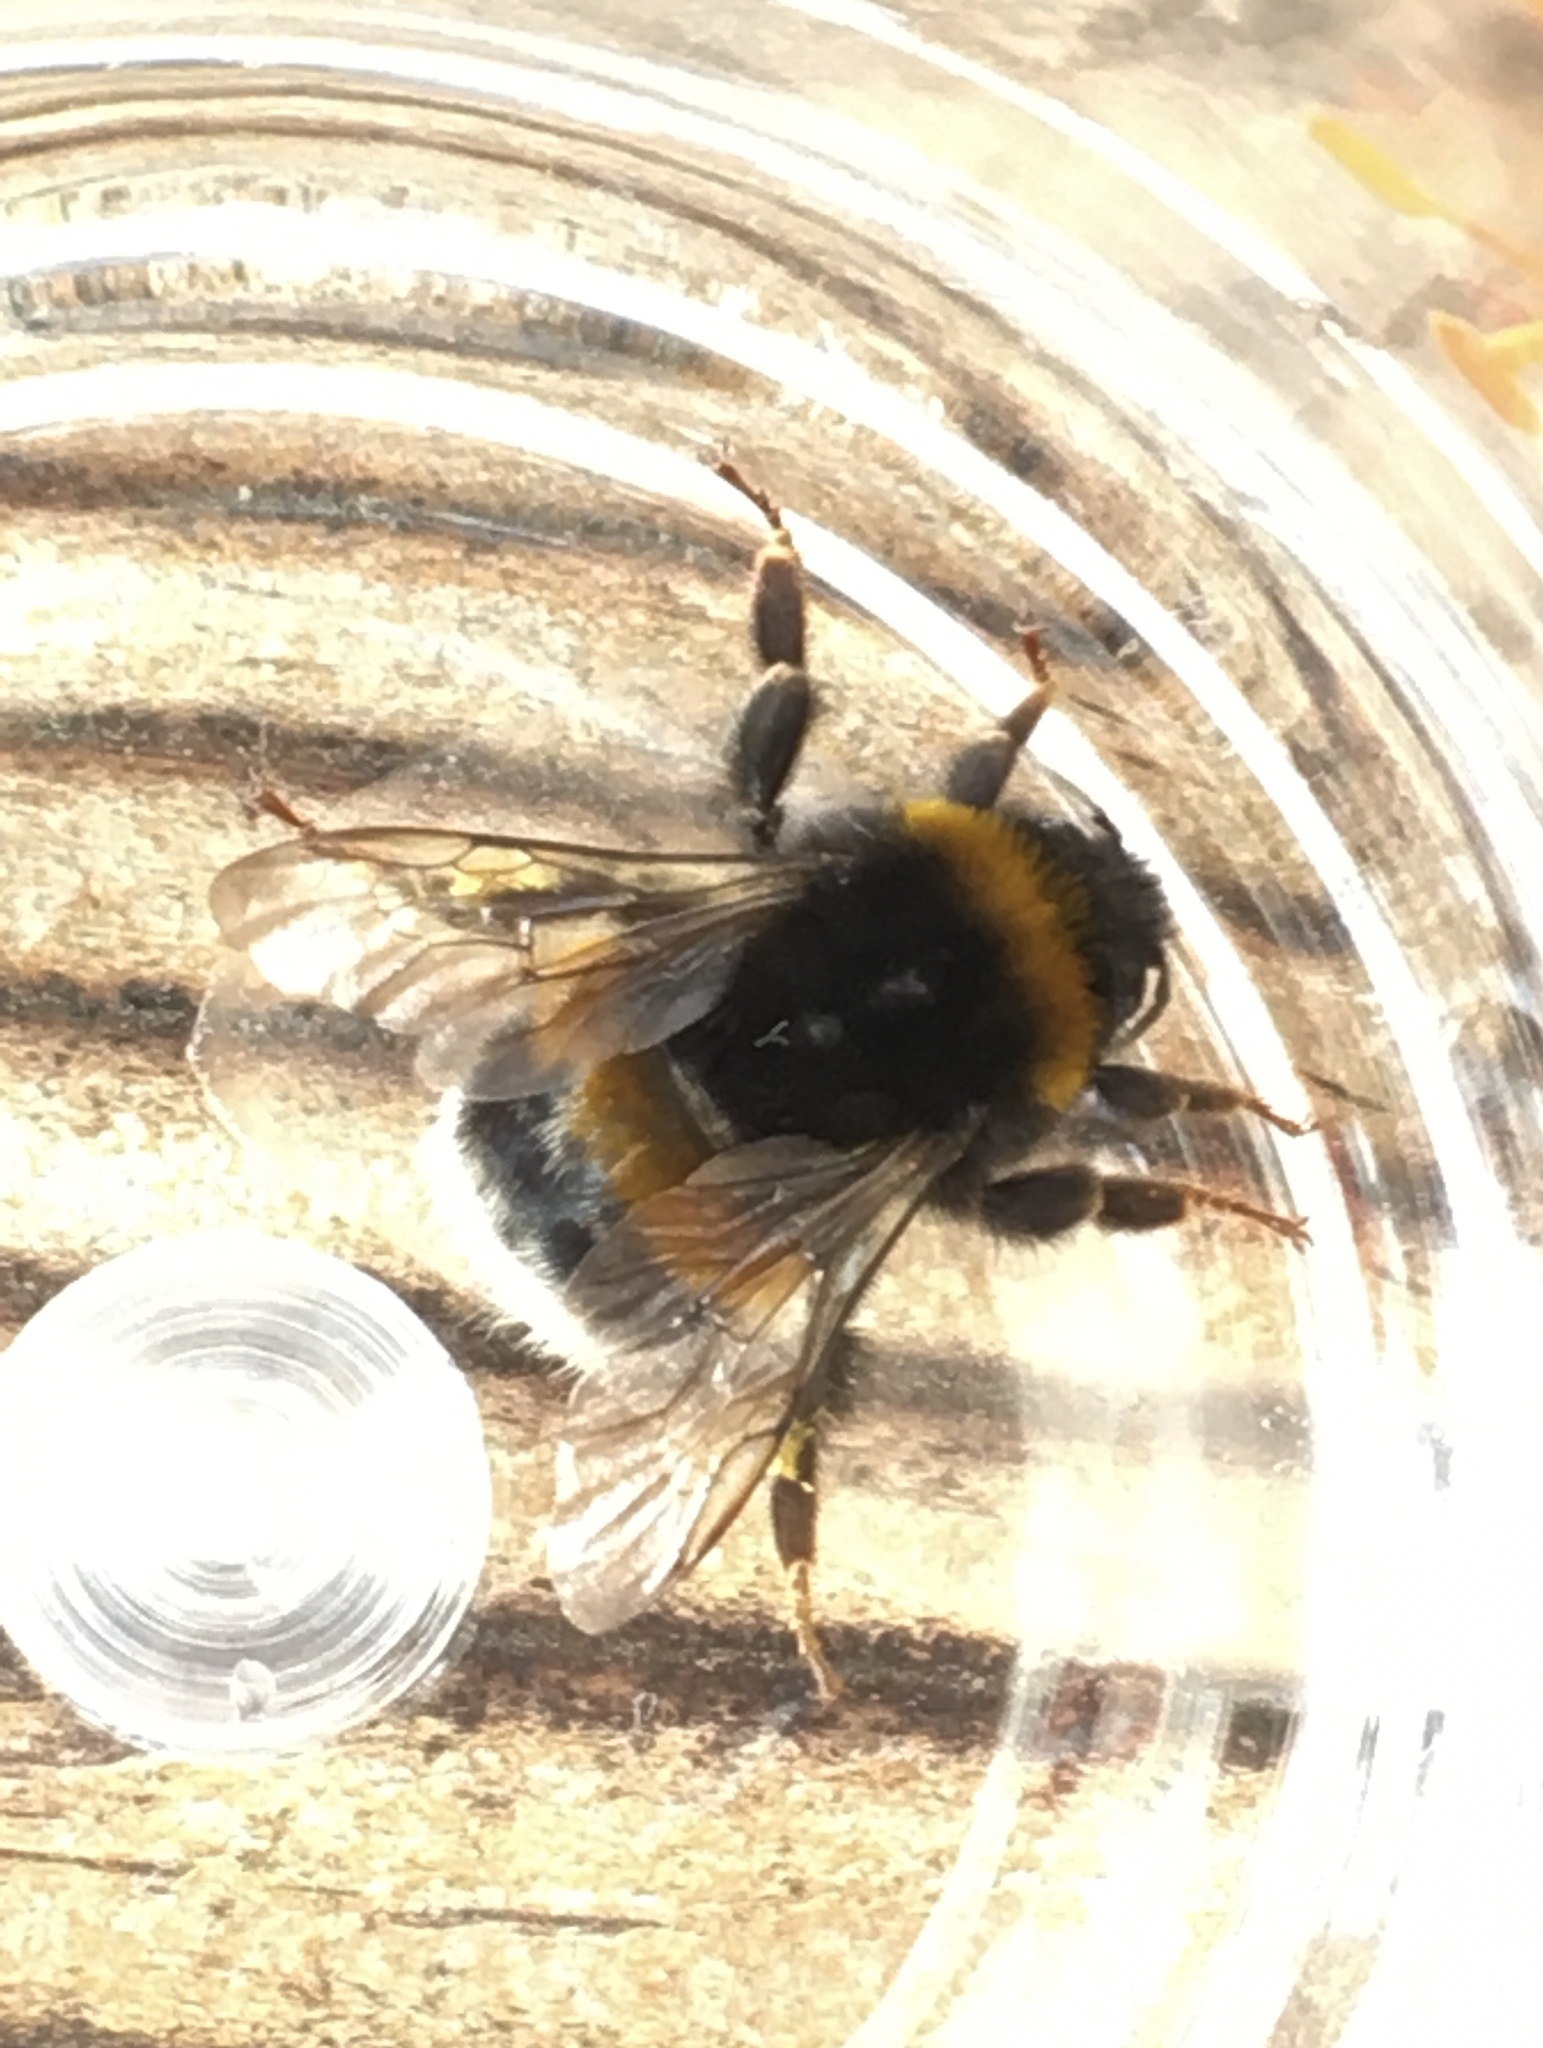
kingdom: Animalia
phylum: Arthropoda
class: Insecta
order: Hymenoptera
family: Apidae
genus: Bombus
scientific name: Bombus terrestris
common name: Buff-tailed bumblebee
